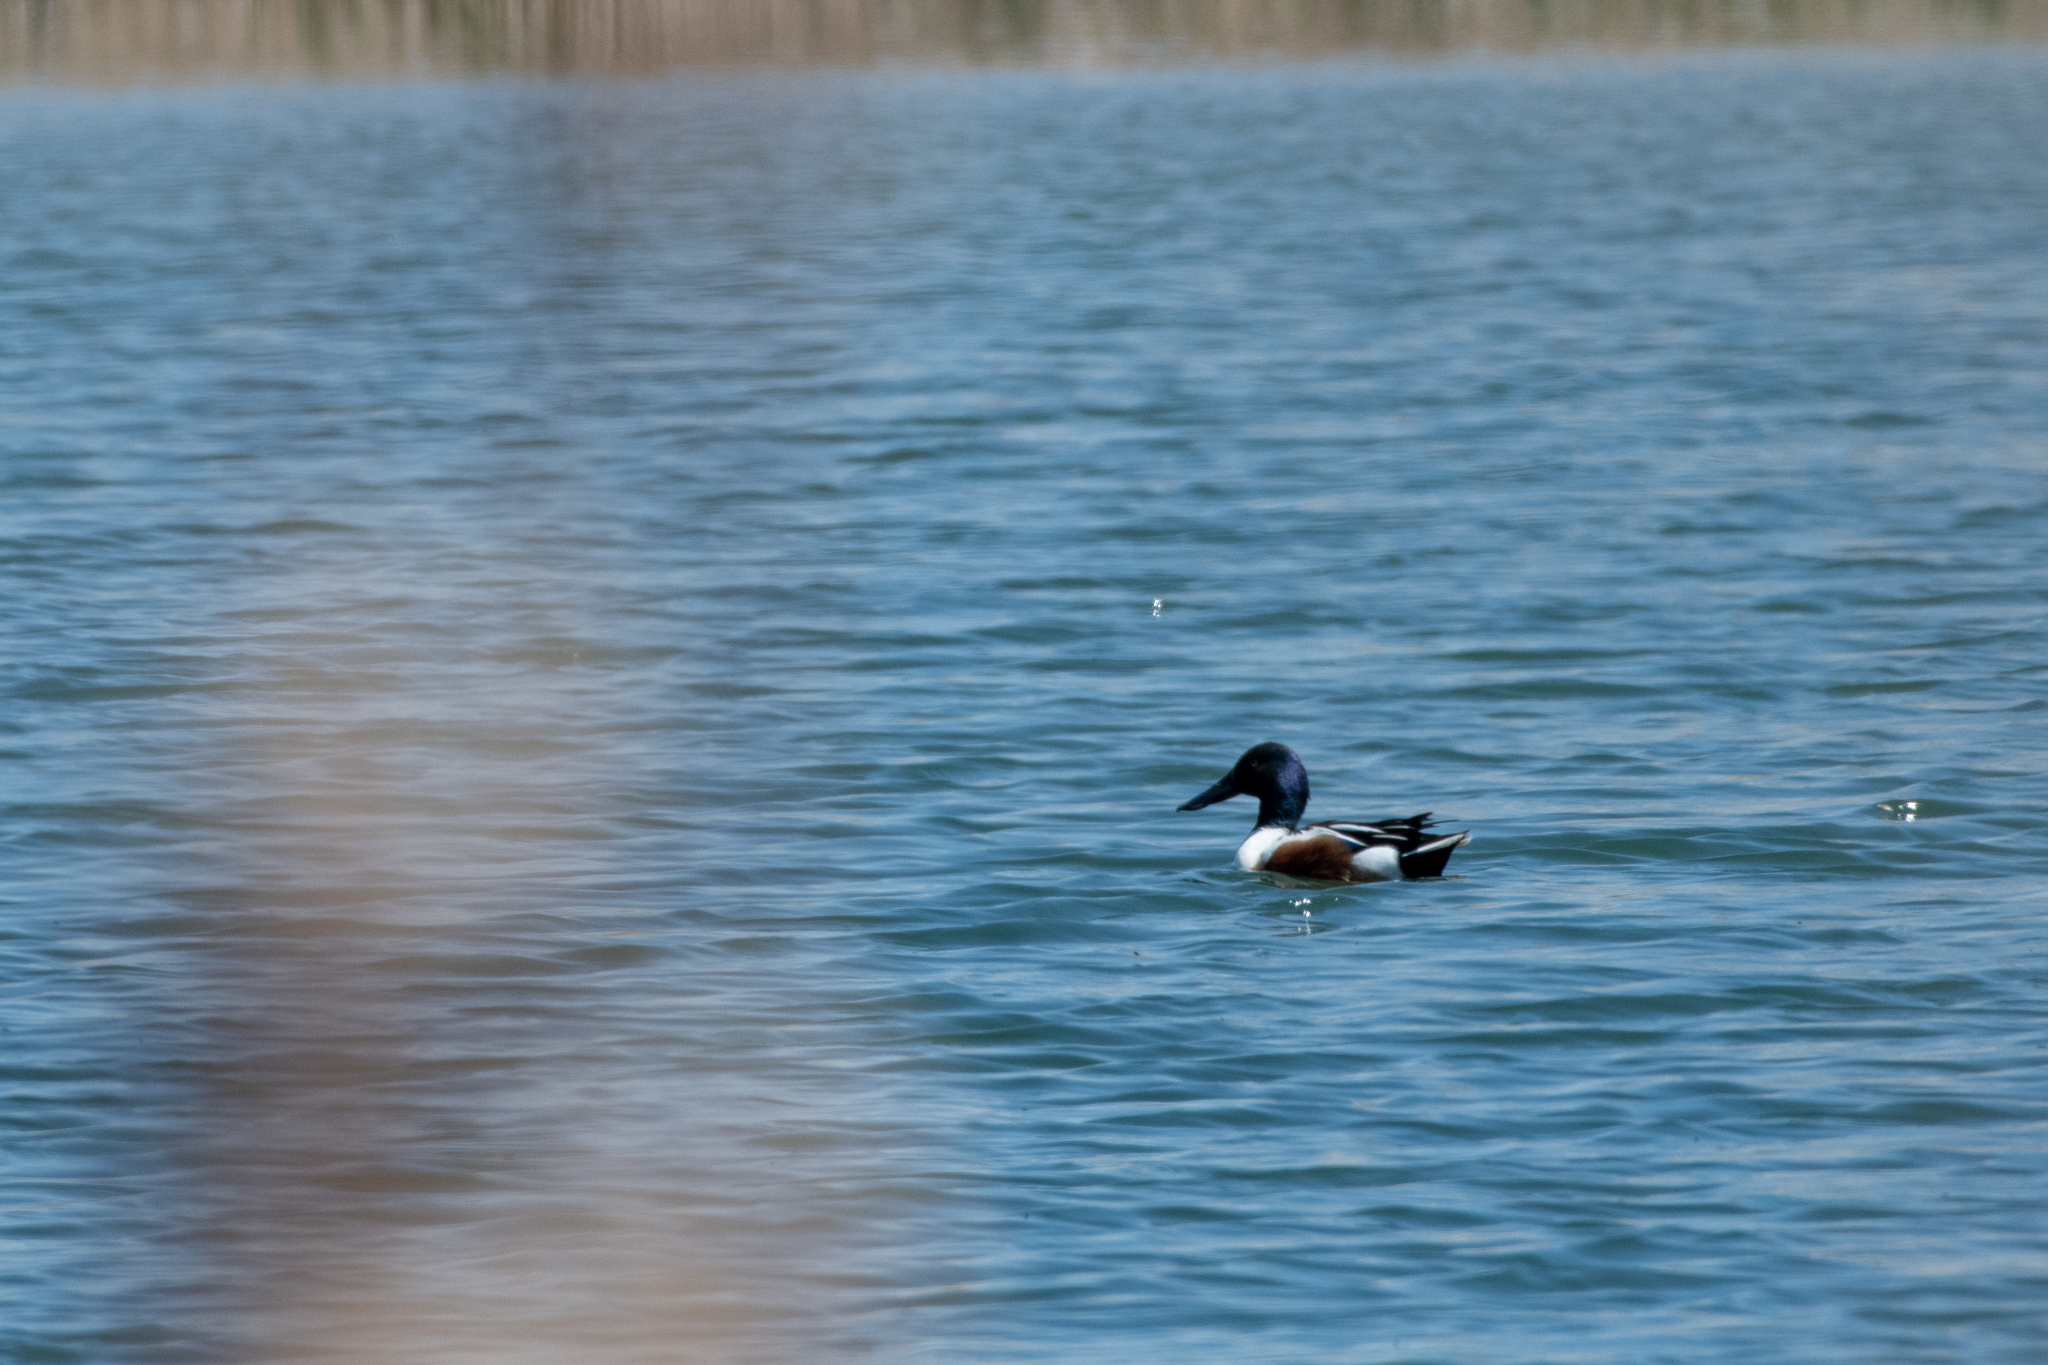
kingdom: Animalia
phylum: Chordata
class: Aves
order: Anseriformes
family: Anatidae
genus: Spatula
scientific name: Spatula clypeata
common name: Northern shoveler
